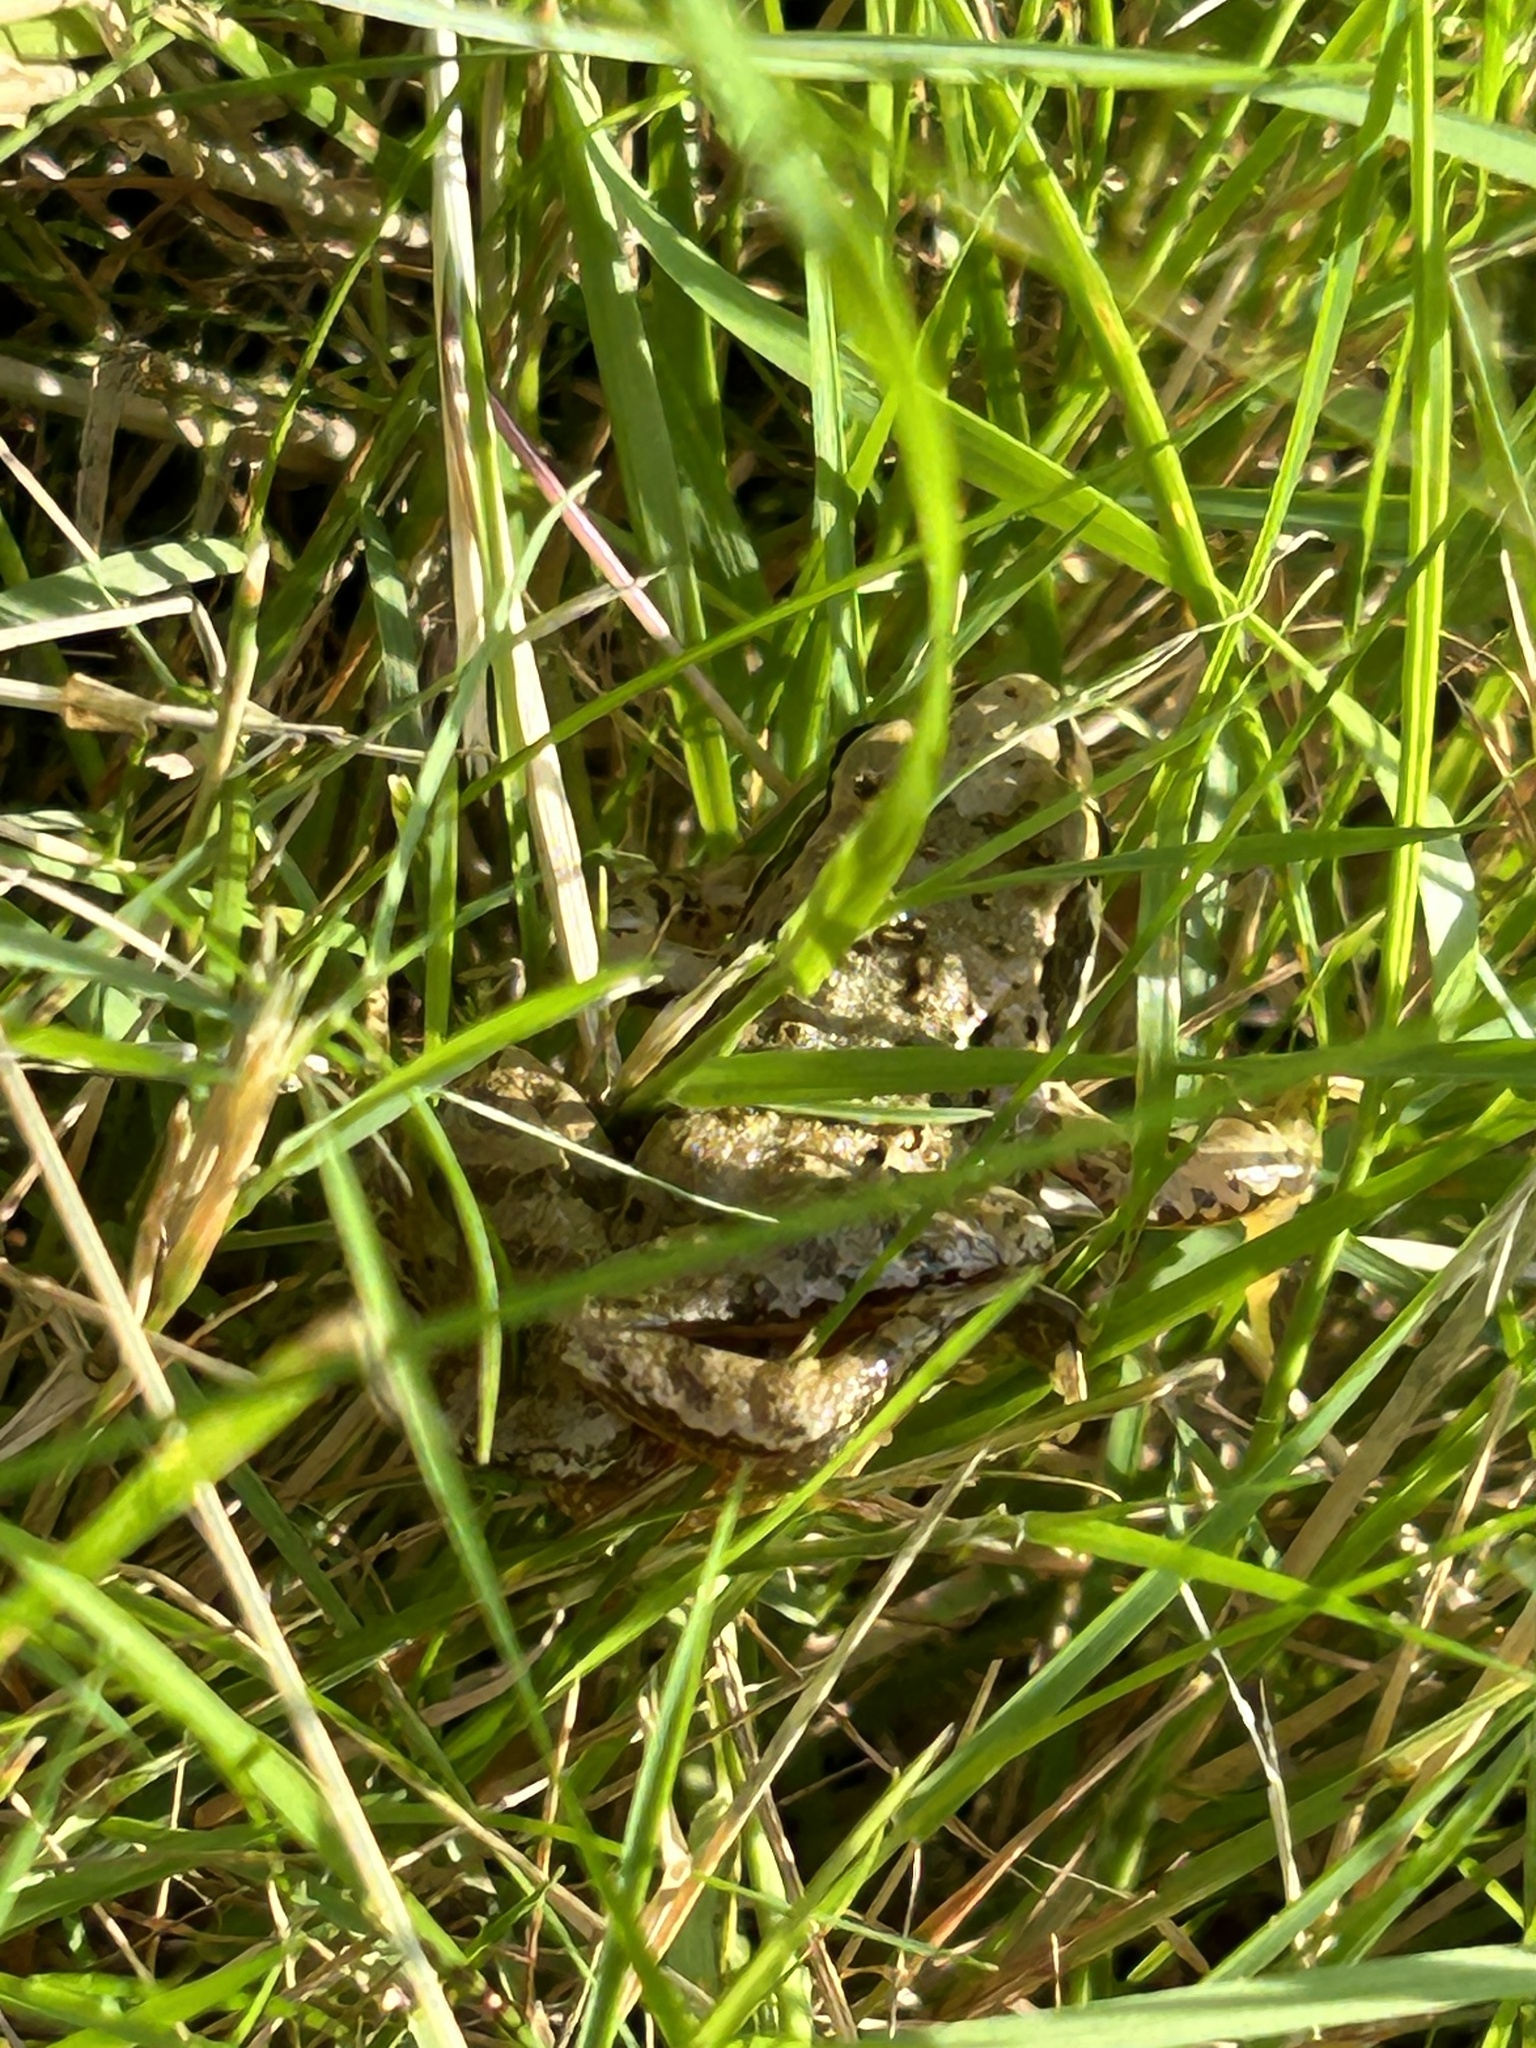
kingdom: Animalia
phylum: Chordata
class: Amphibia
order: Anura
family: Ranidae
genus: Rana
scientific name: Rana temporaria
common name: Common frog
